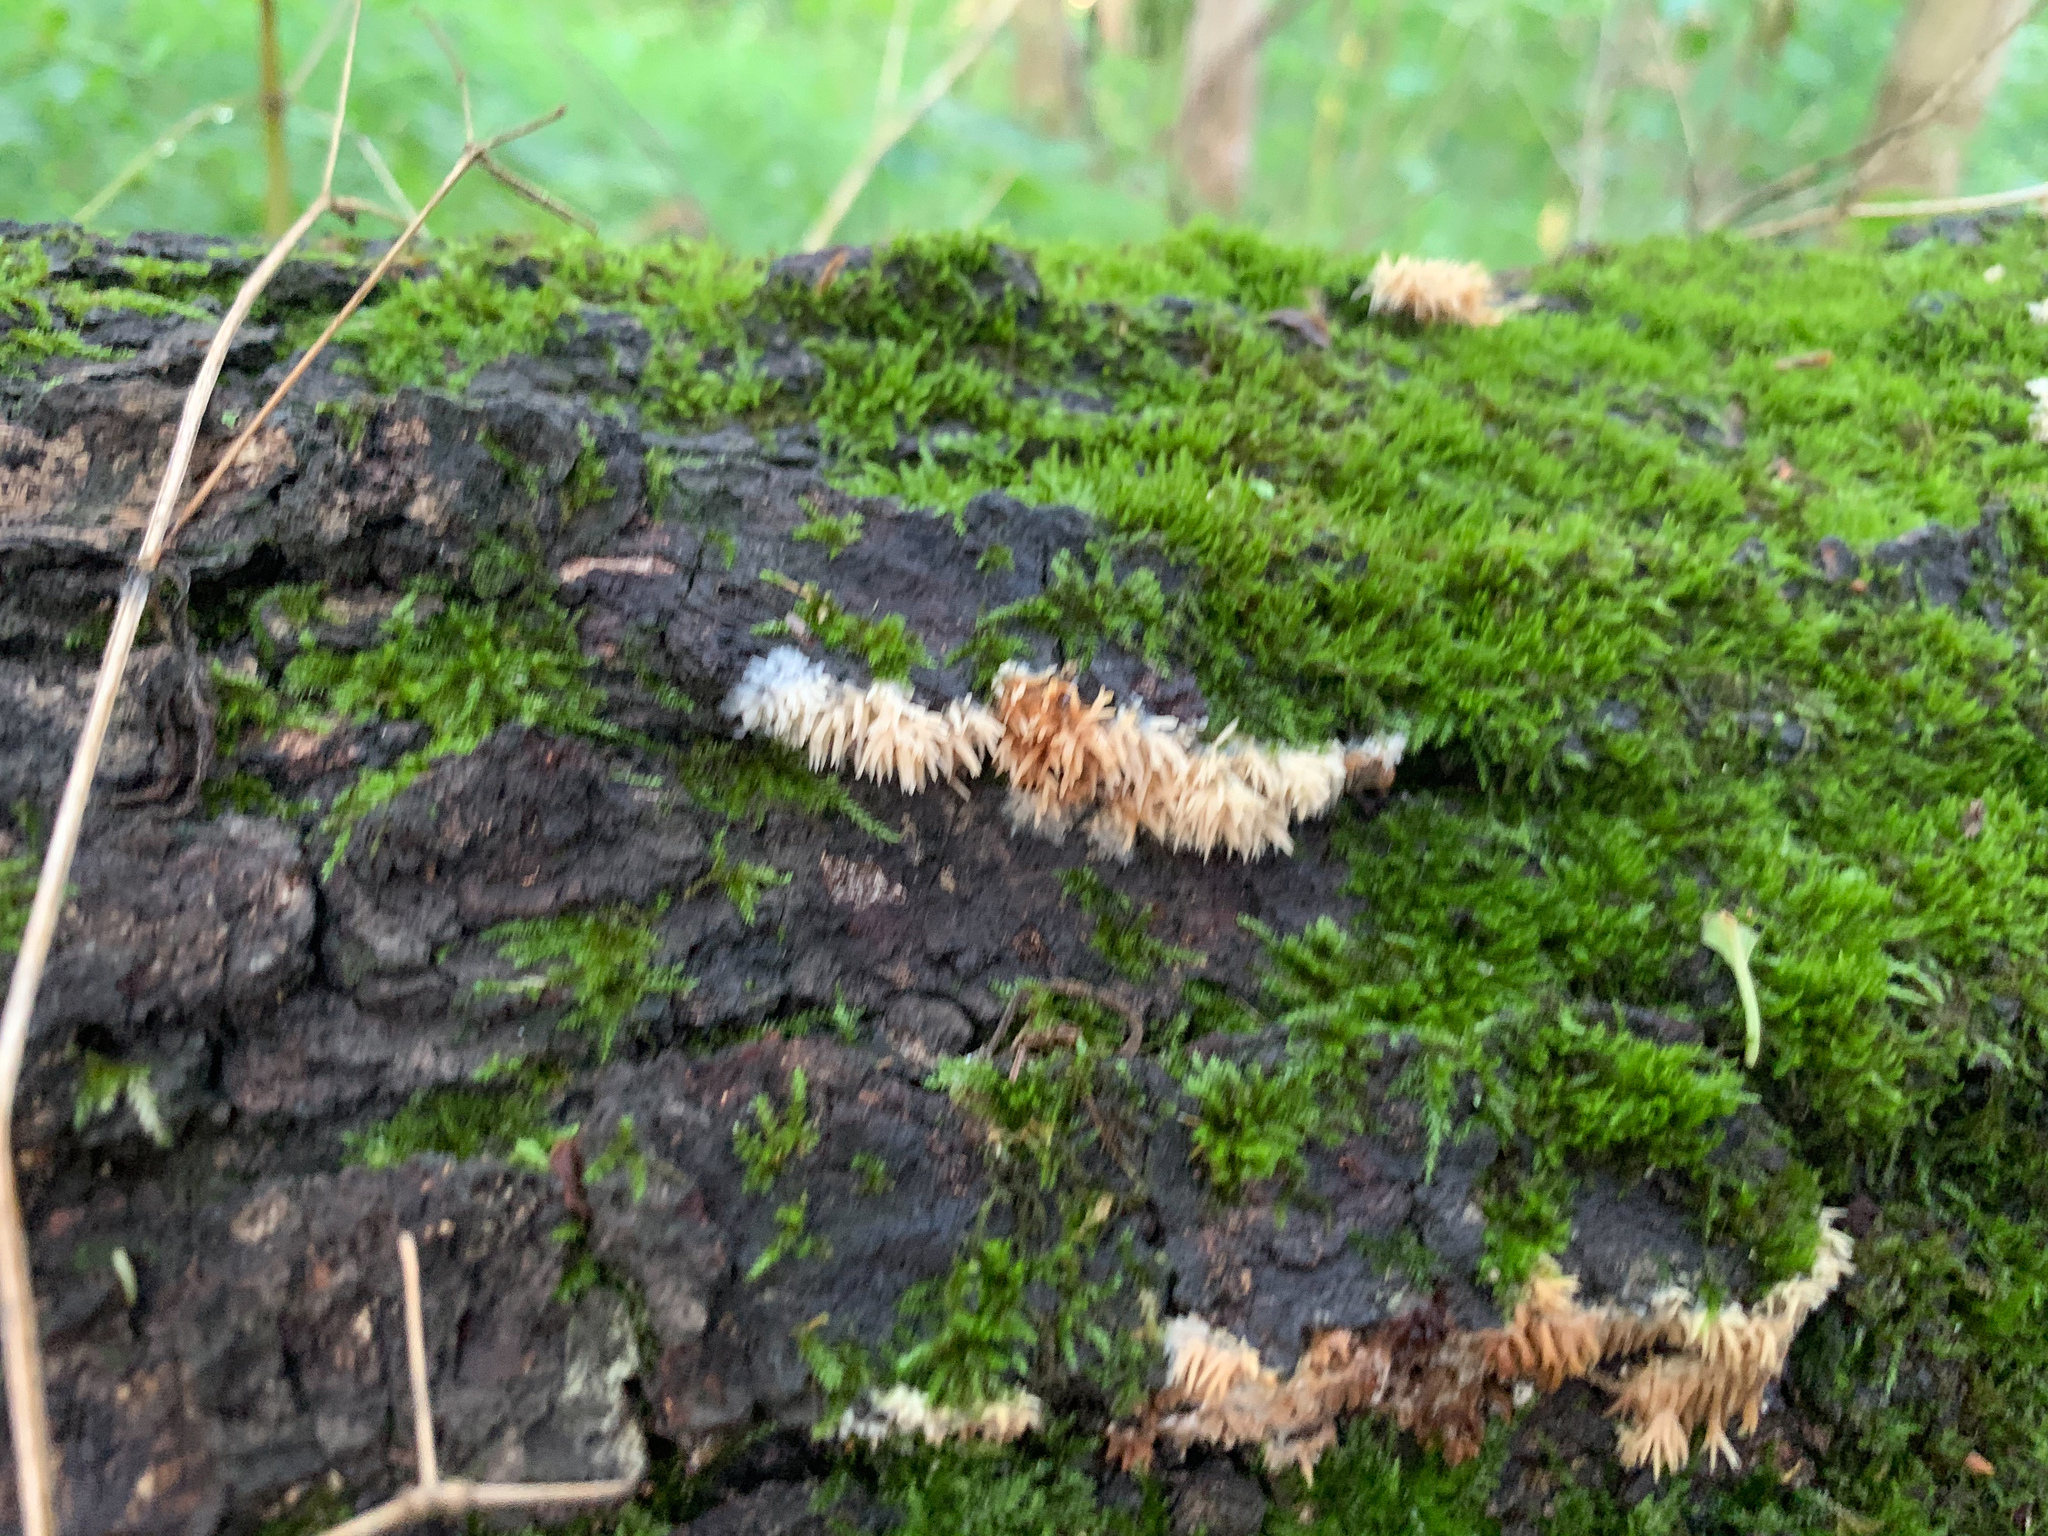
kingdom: Fungi
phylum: Basidiomycota
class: Agaricomycetes
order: Agaricales
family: Radulomycetaceae
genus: Radulomyces
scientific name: Radulomyces copelandii
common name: Asian beauty
